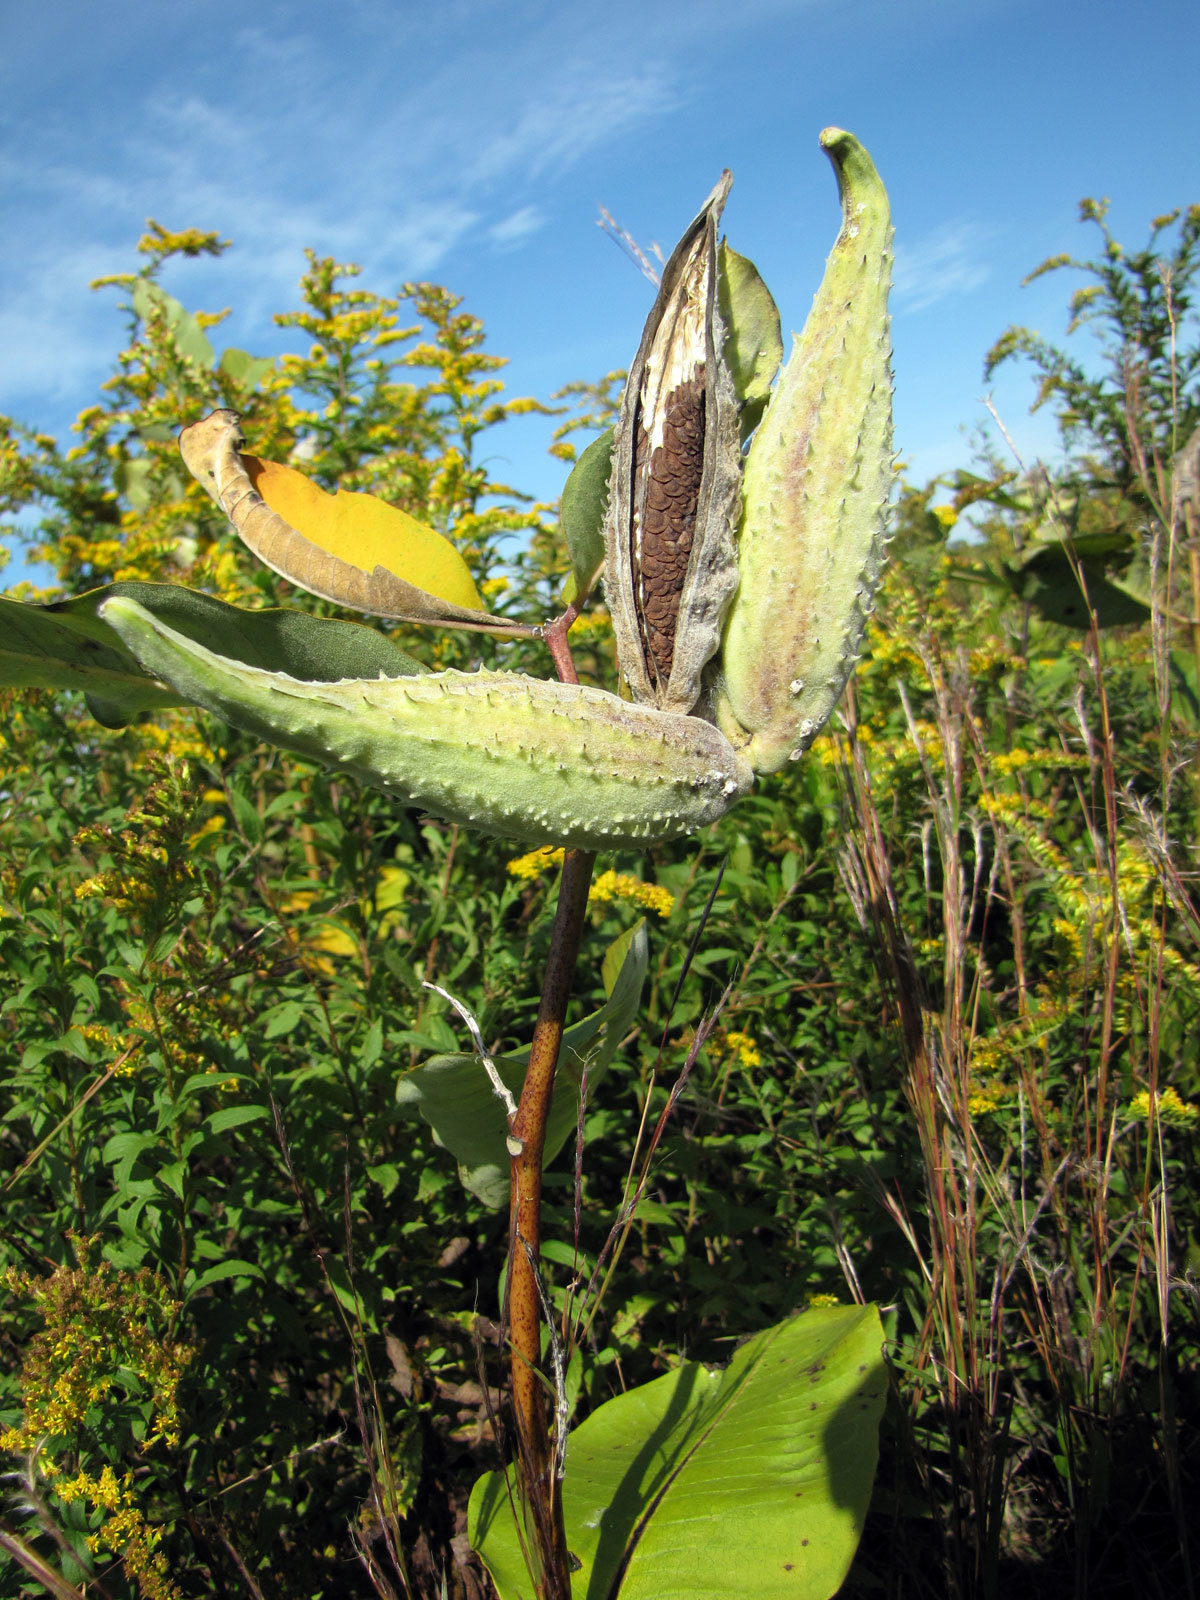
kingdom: Plantae
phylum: Tracheophyta
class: Magnoliopsida
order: Gentianales
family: Apocynaceae
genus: Asclepias
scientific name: Asclepias syriaca
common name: Common milkweed
